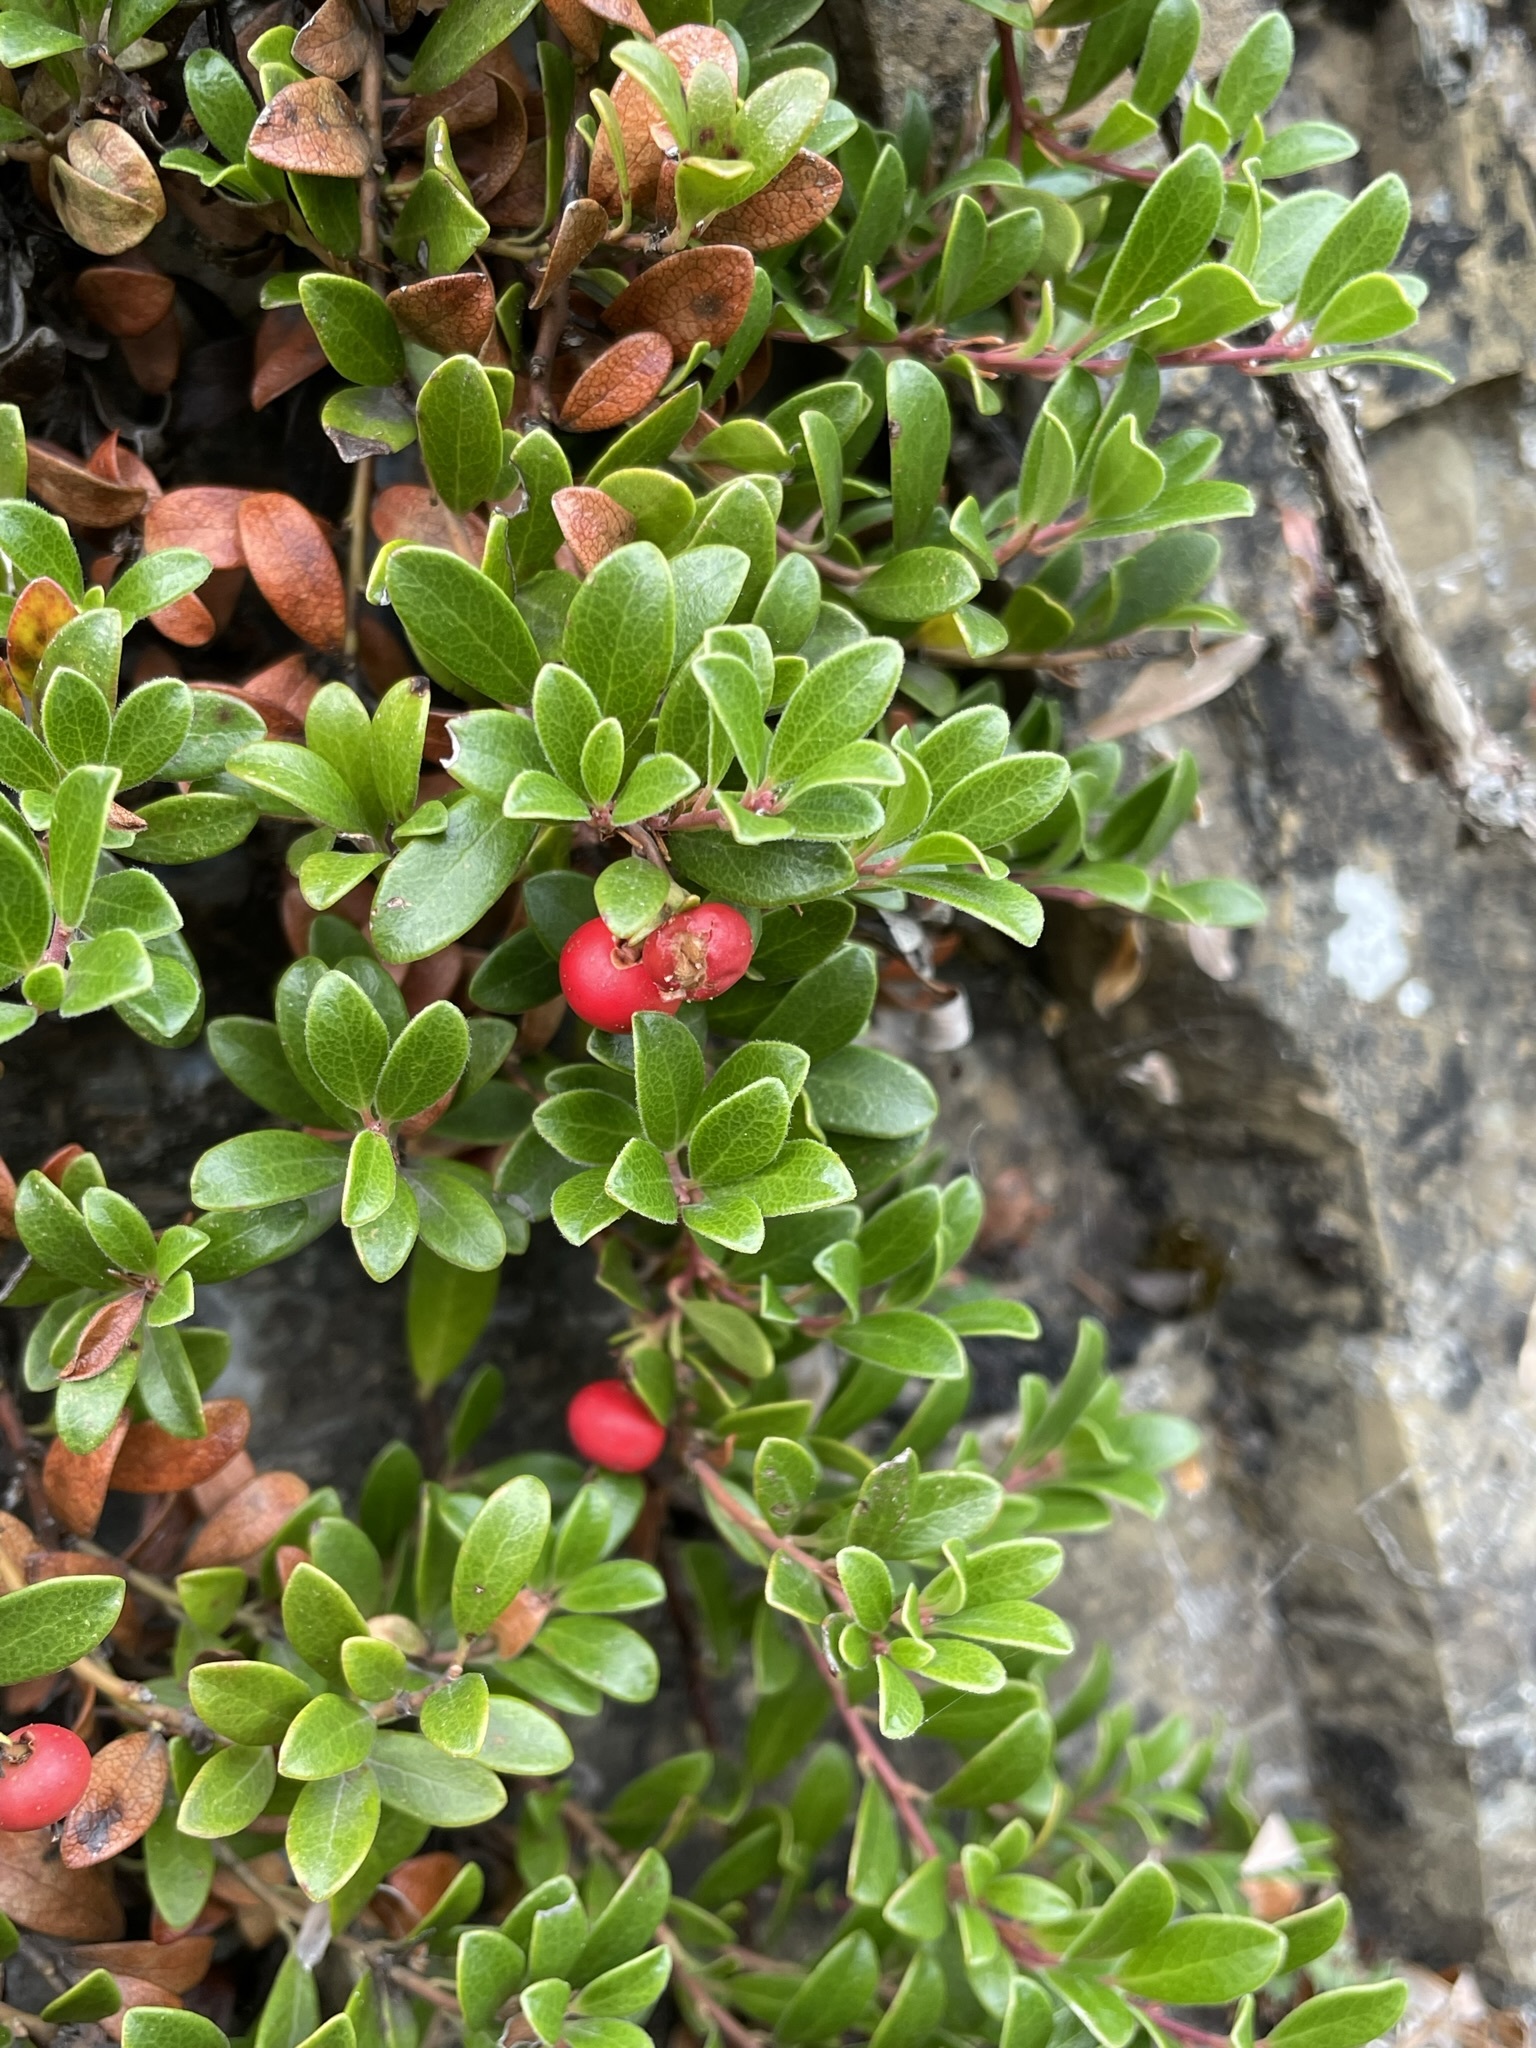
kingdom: Plantae
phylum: Tracheophyta
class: Magnoliopsida
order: Ericales
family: Ericaceae
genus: Arctostaphylos
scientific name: Arctostaphylos uva-ursi
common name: Bearberry
